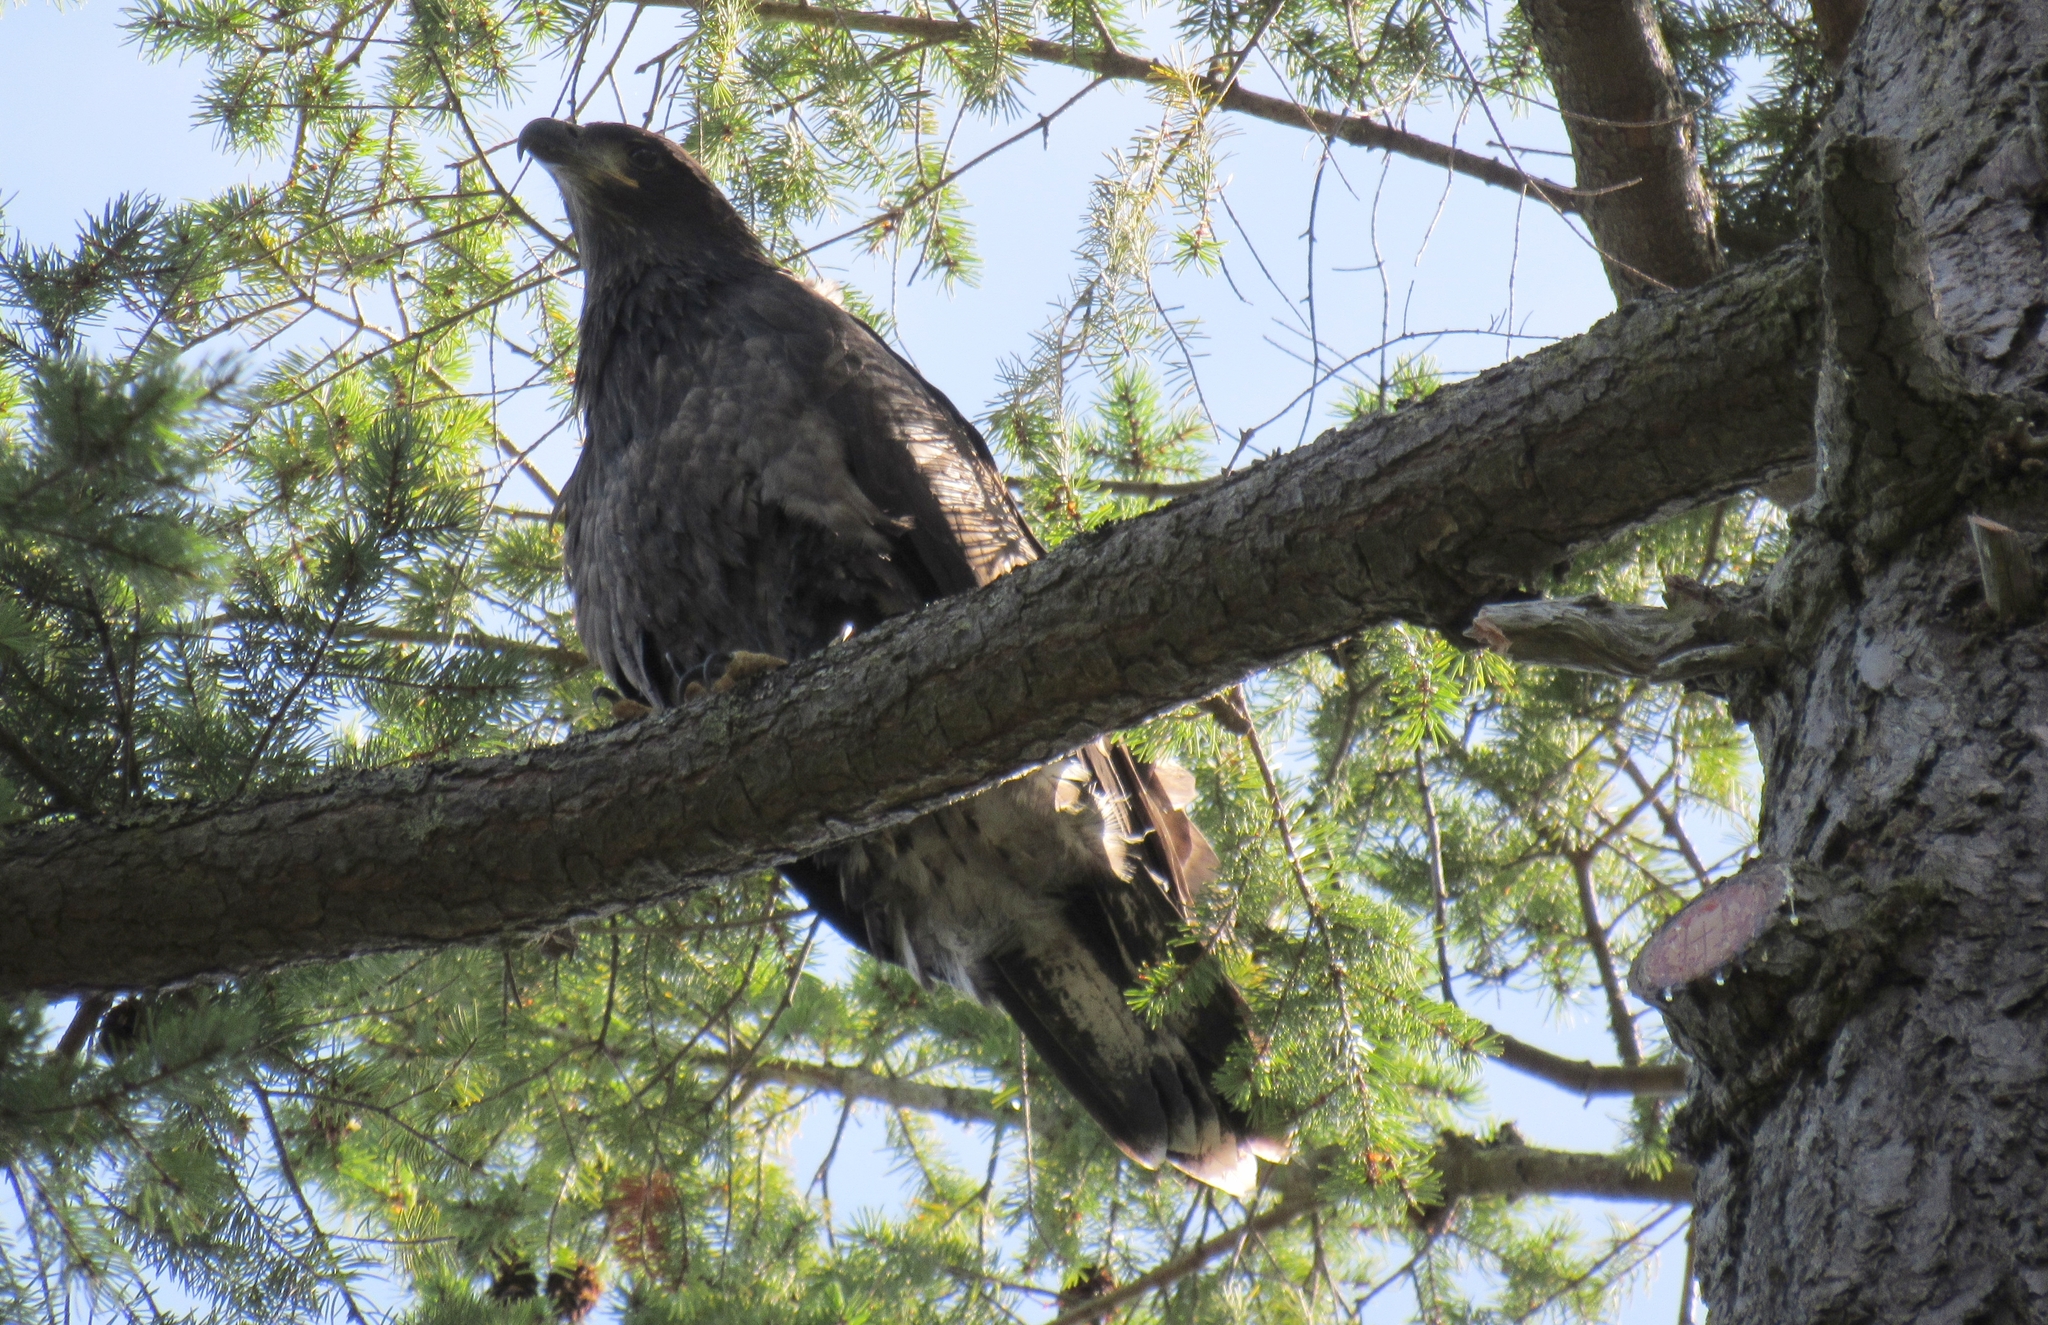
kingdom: Animalia
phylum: Chordata
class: Aves
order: Accipitriformes
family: Accipitridae
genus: Haliaeetus
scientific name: Haliaeetus leucocephalus
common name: Bald eagle
